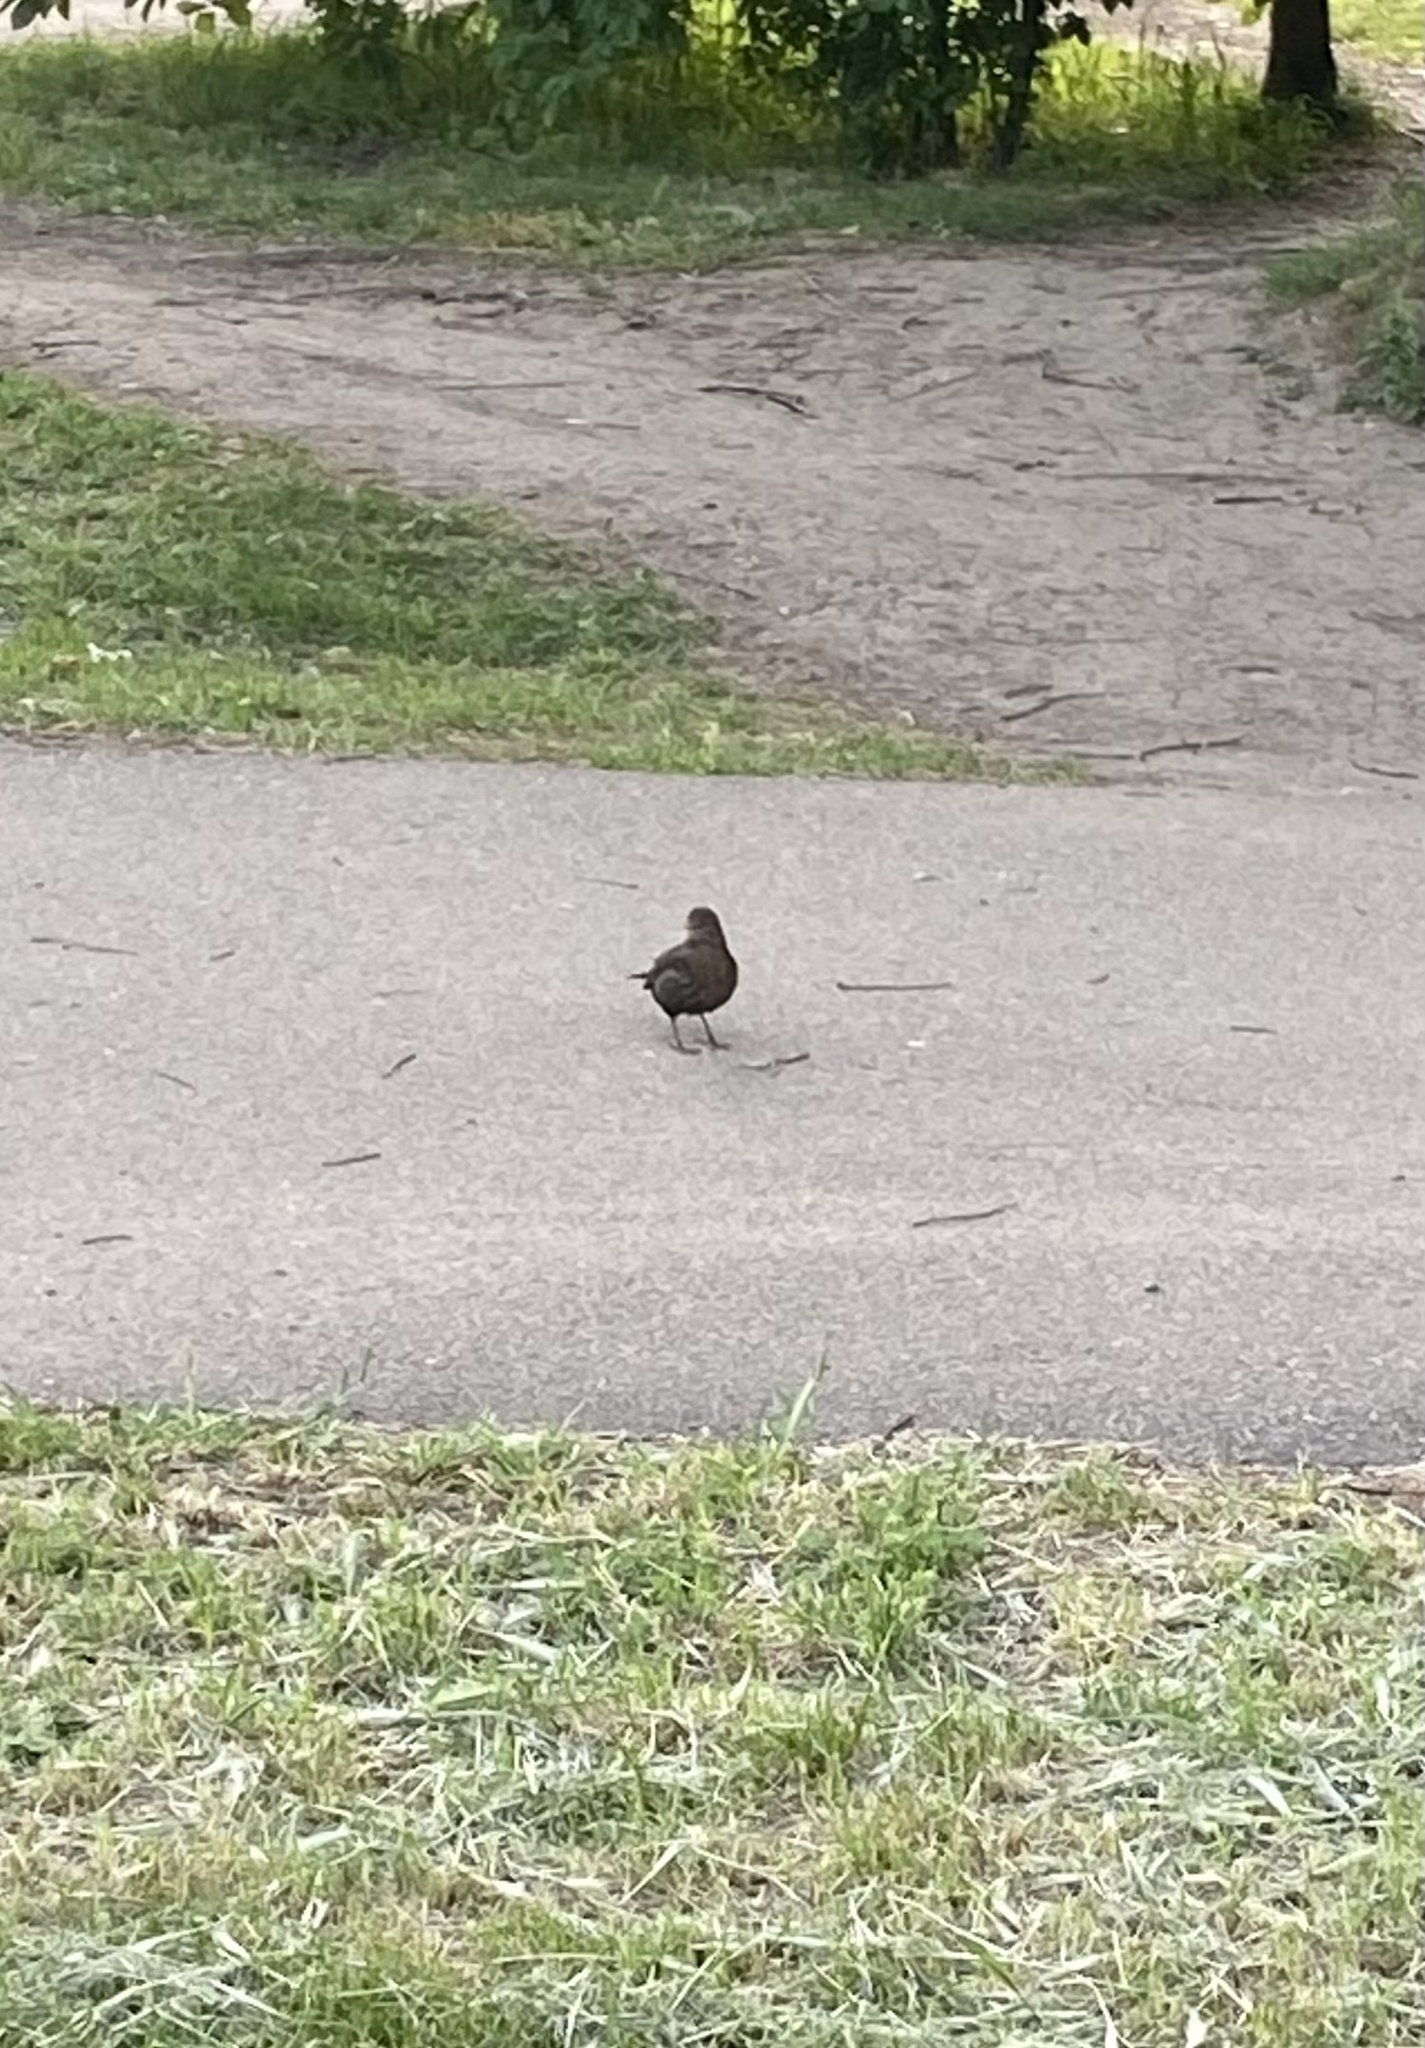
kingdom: Animalia
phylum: Chordata
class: Aves
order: Passeriformes
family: Turdidae
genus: Turdus
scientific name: Turdus merula
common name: Common blackbird
